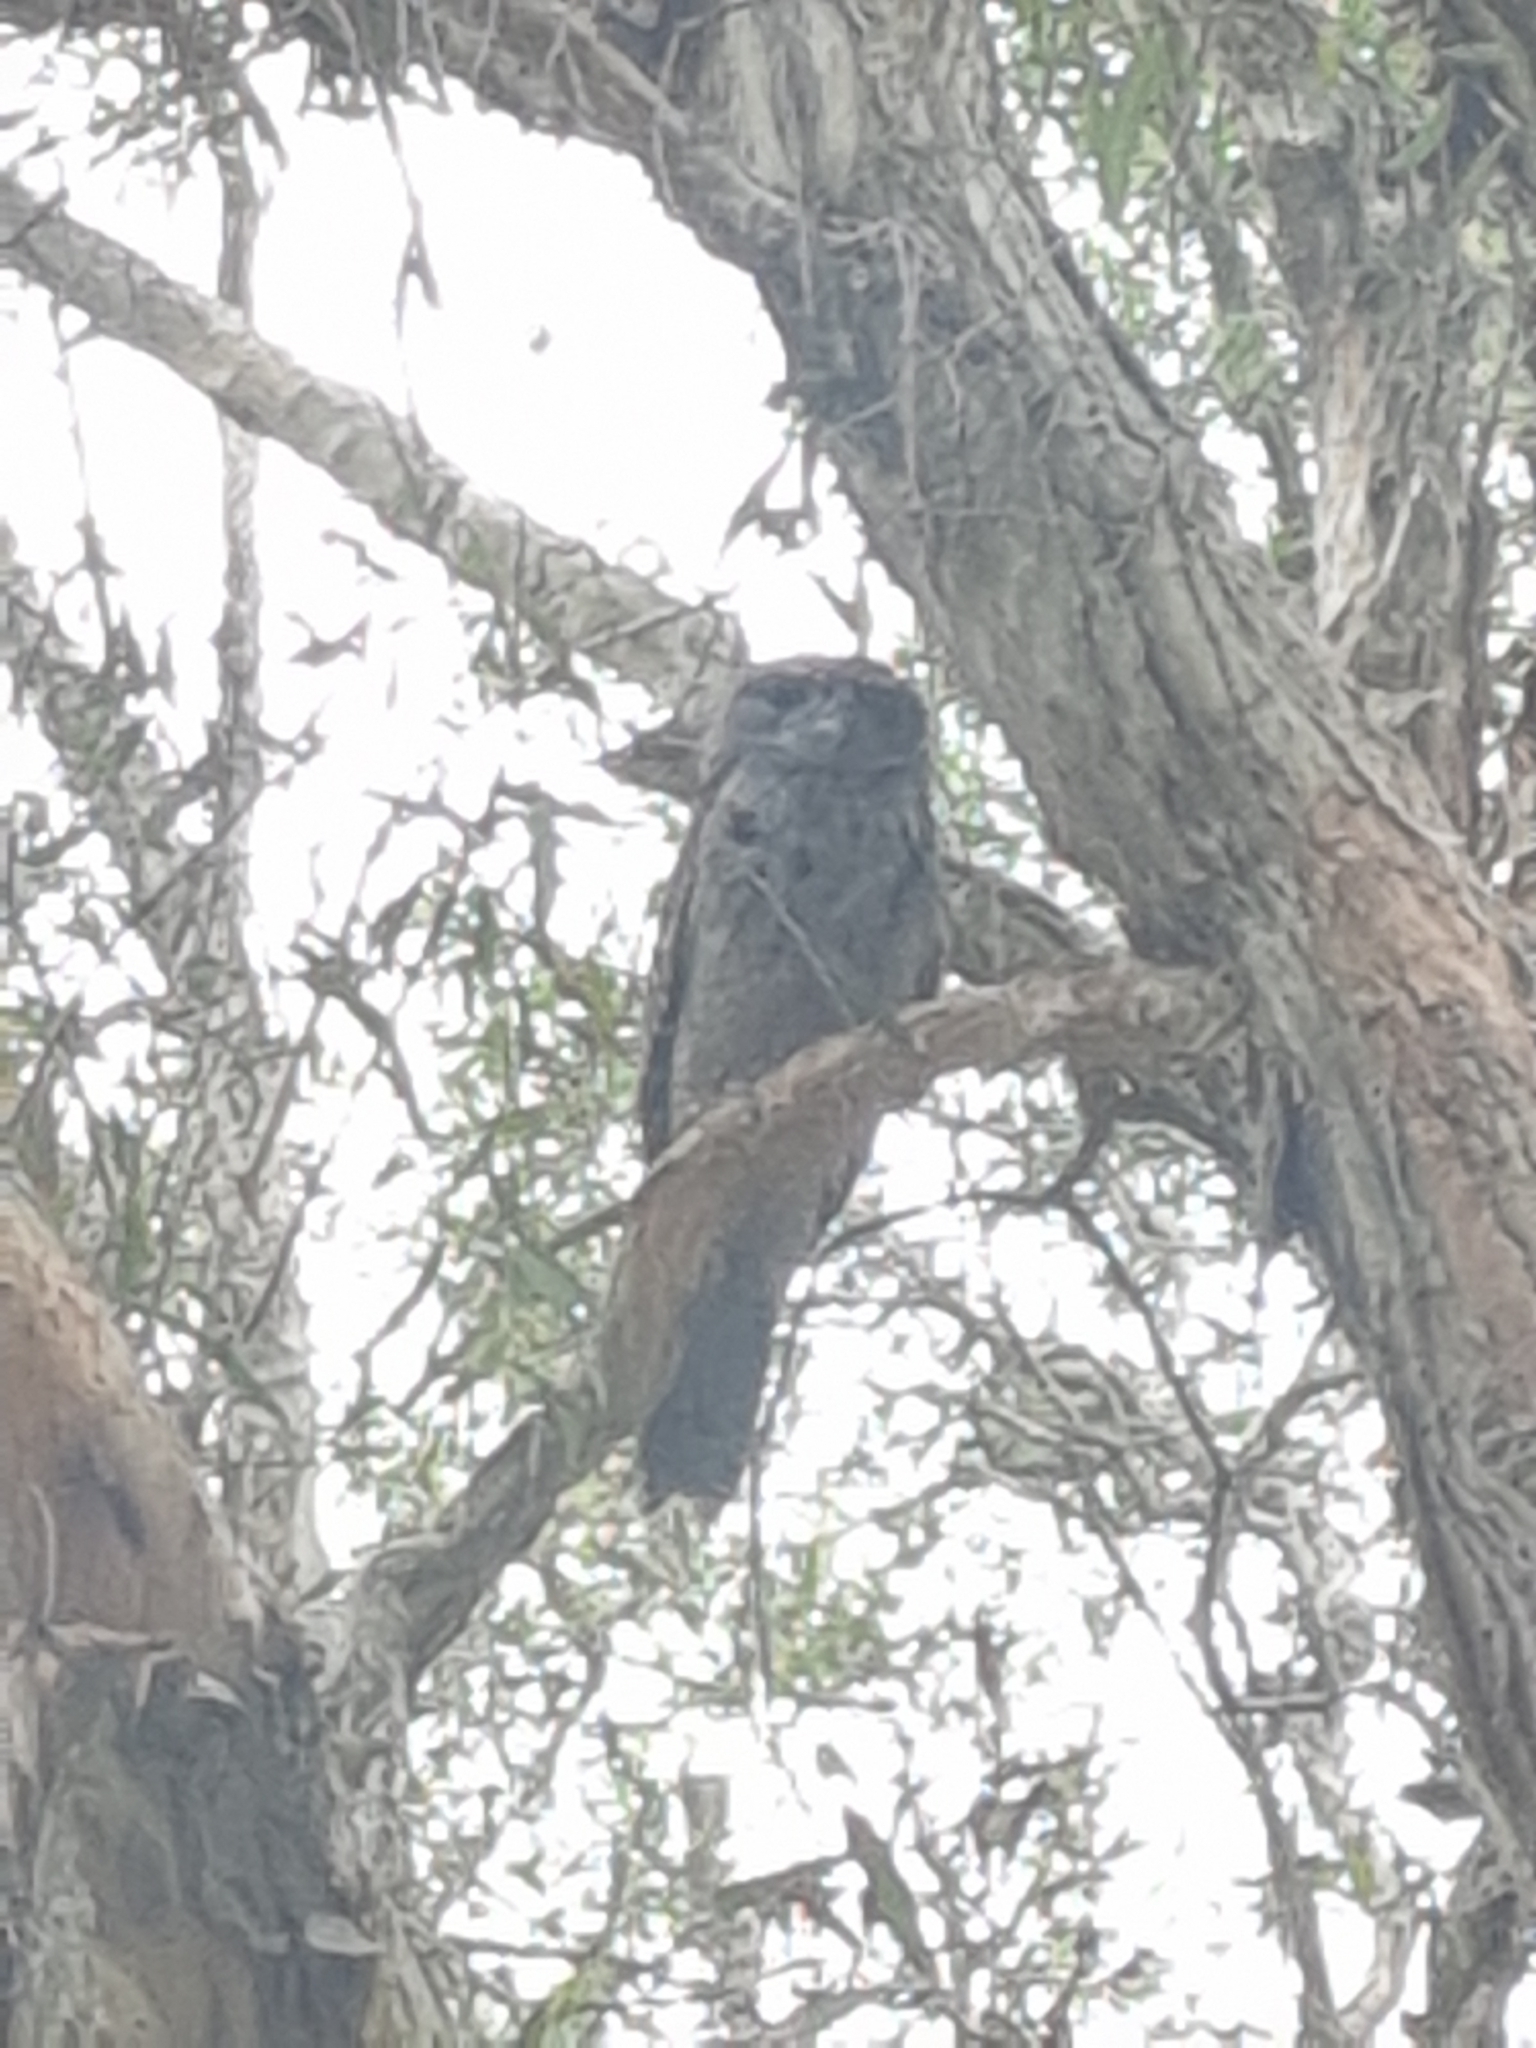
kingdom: Animalia
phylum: Chordata
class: Aves
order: Caprimulgiformes
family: Podargidae
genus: Podargus
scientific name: Podargus strigoides
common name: Tawny frogmouth
